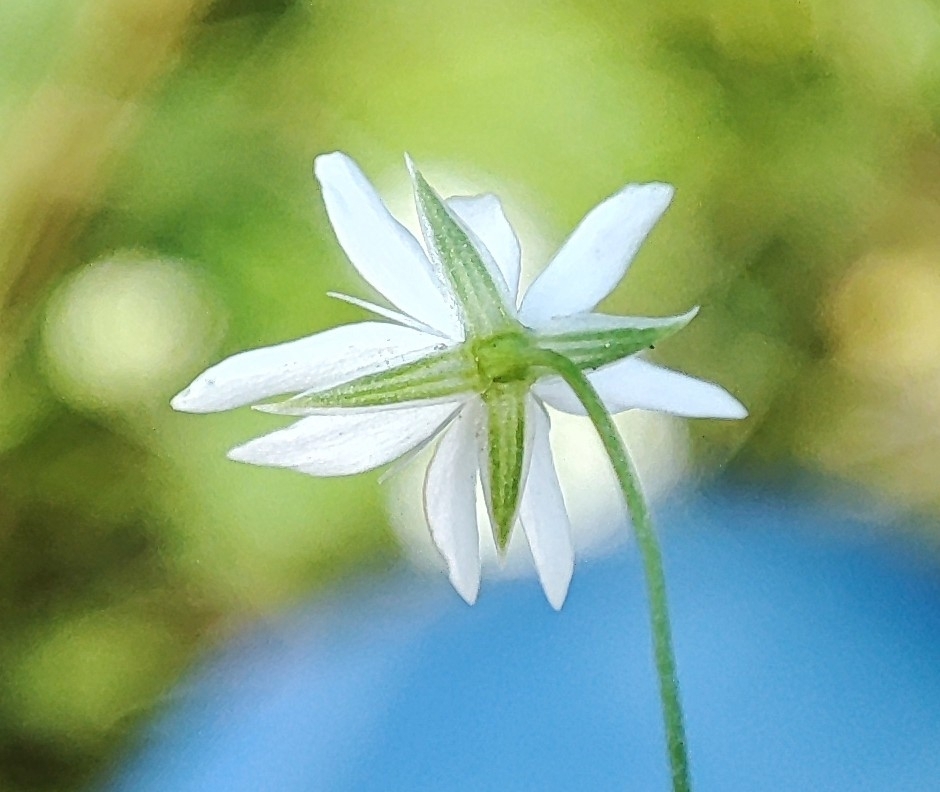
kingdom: Plantae
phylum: Tracheophyta
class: Magnoliopsida
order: Caryophyllales
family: Caryophyllaceae
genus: Stellaria
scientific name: Stellaria graminea
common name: Grass-like starwort
